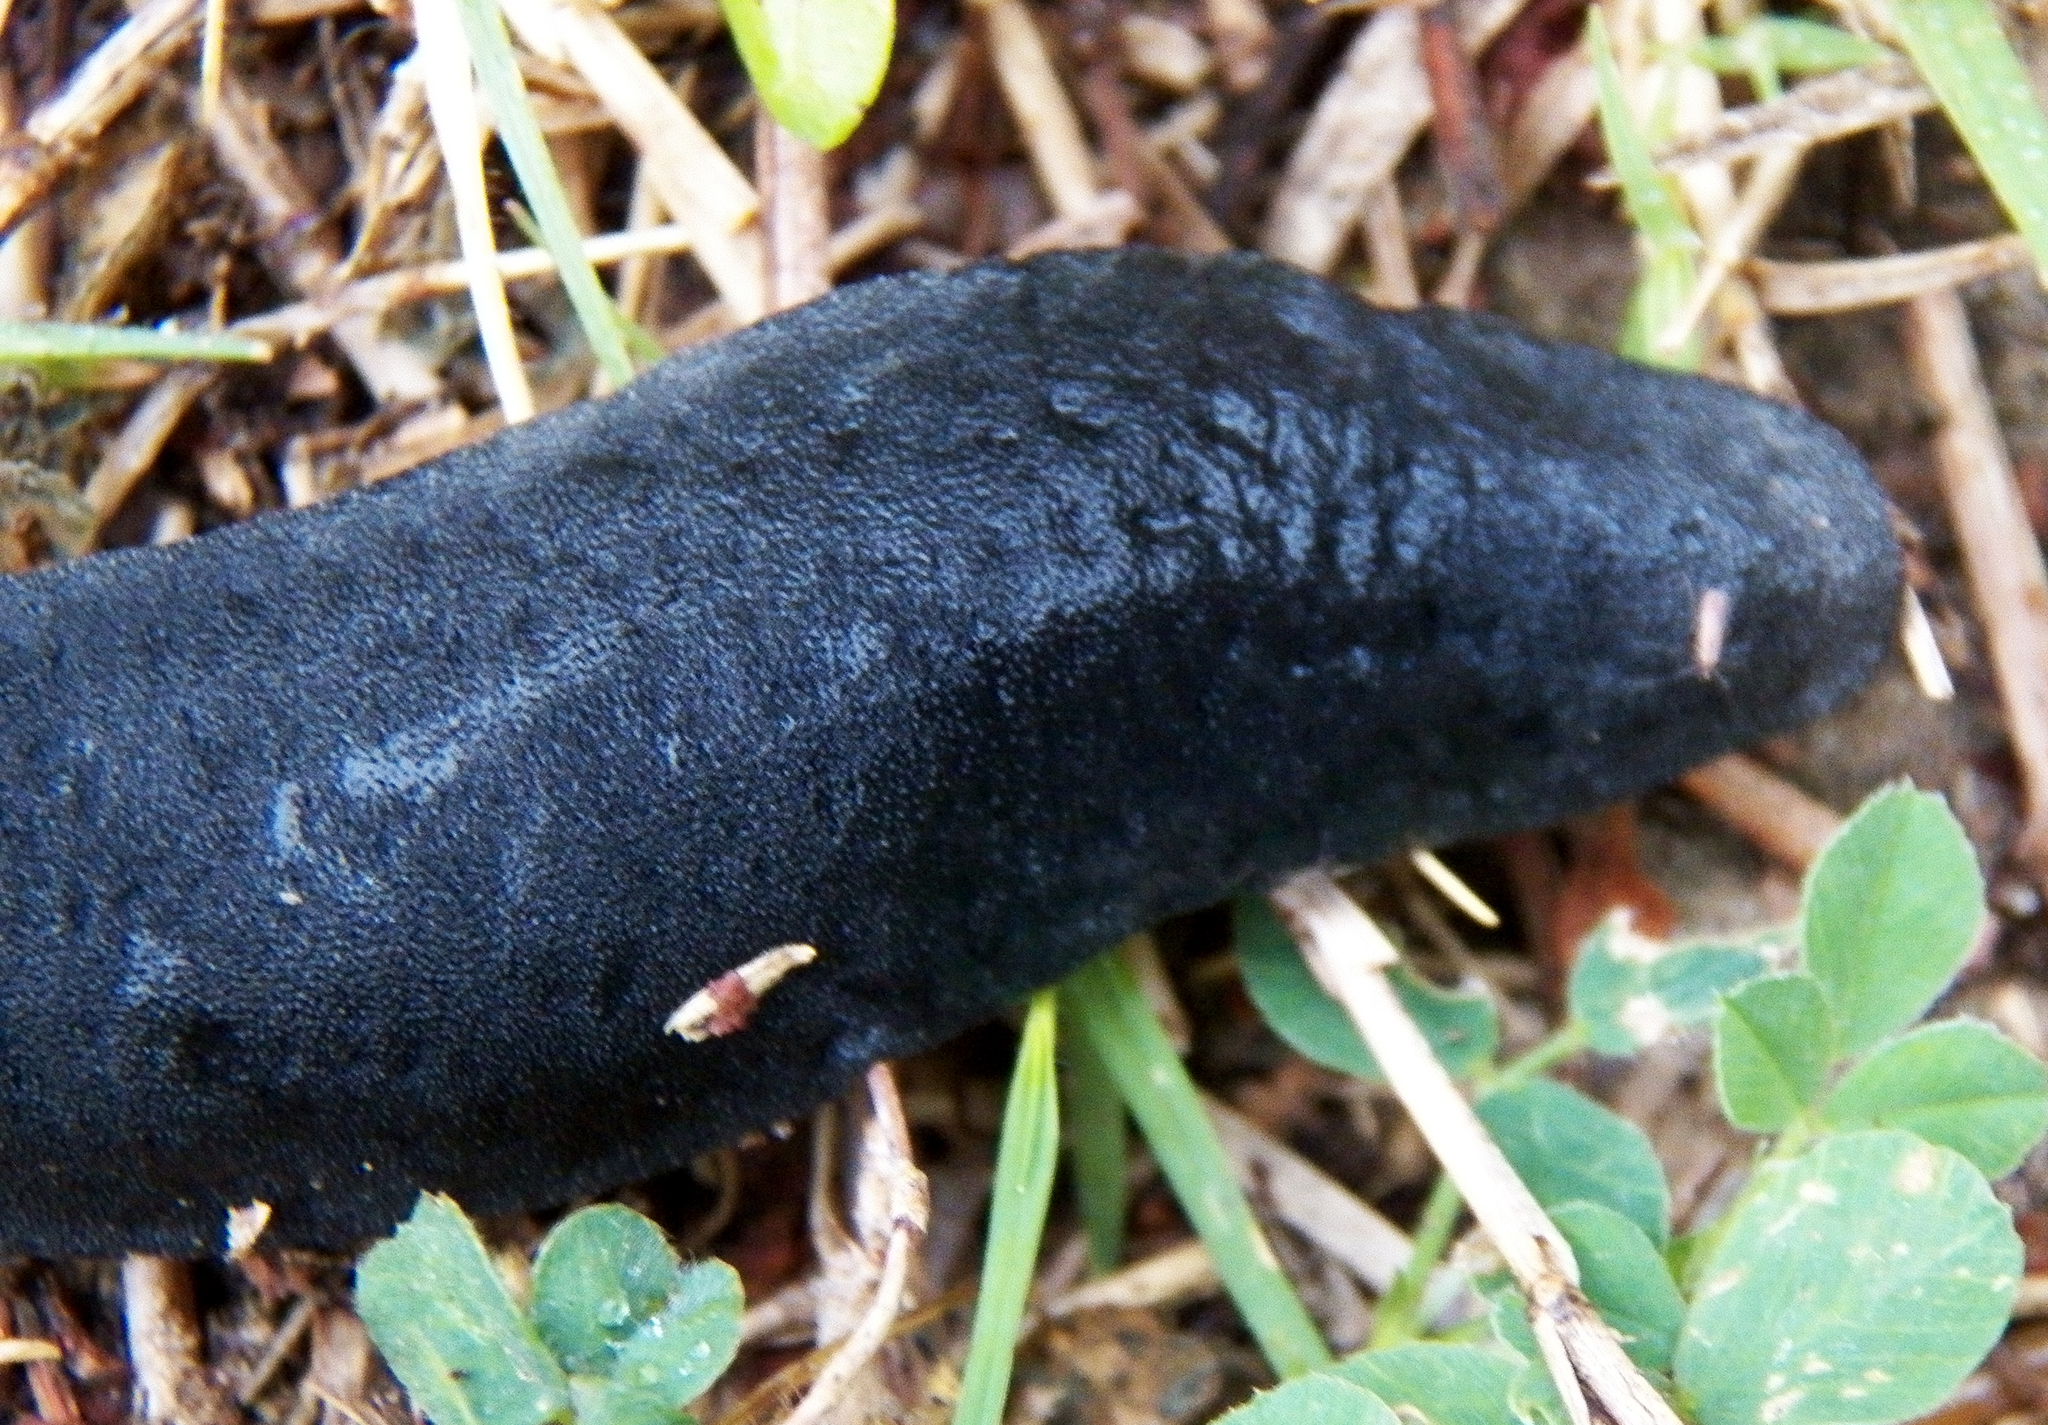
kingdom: Animalia
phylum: Mollusca
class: Gastropoda
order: Systellommatophora
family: Veronicellidae
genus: Belocaulus
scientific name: Belocaulus angustipes
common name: Black velvet leatherleaf slug
